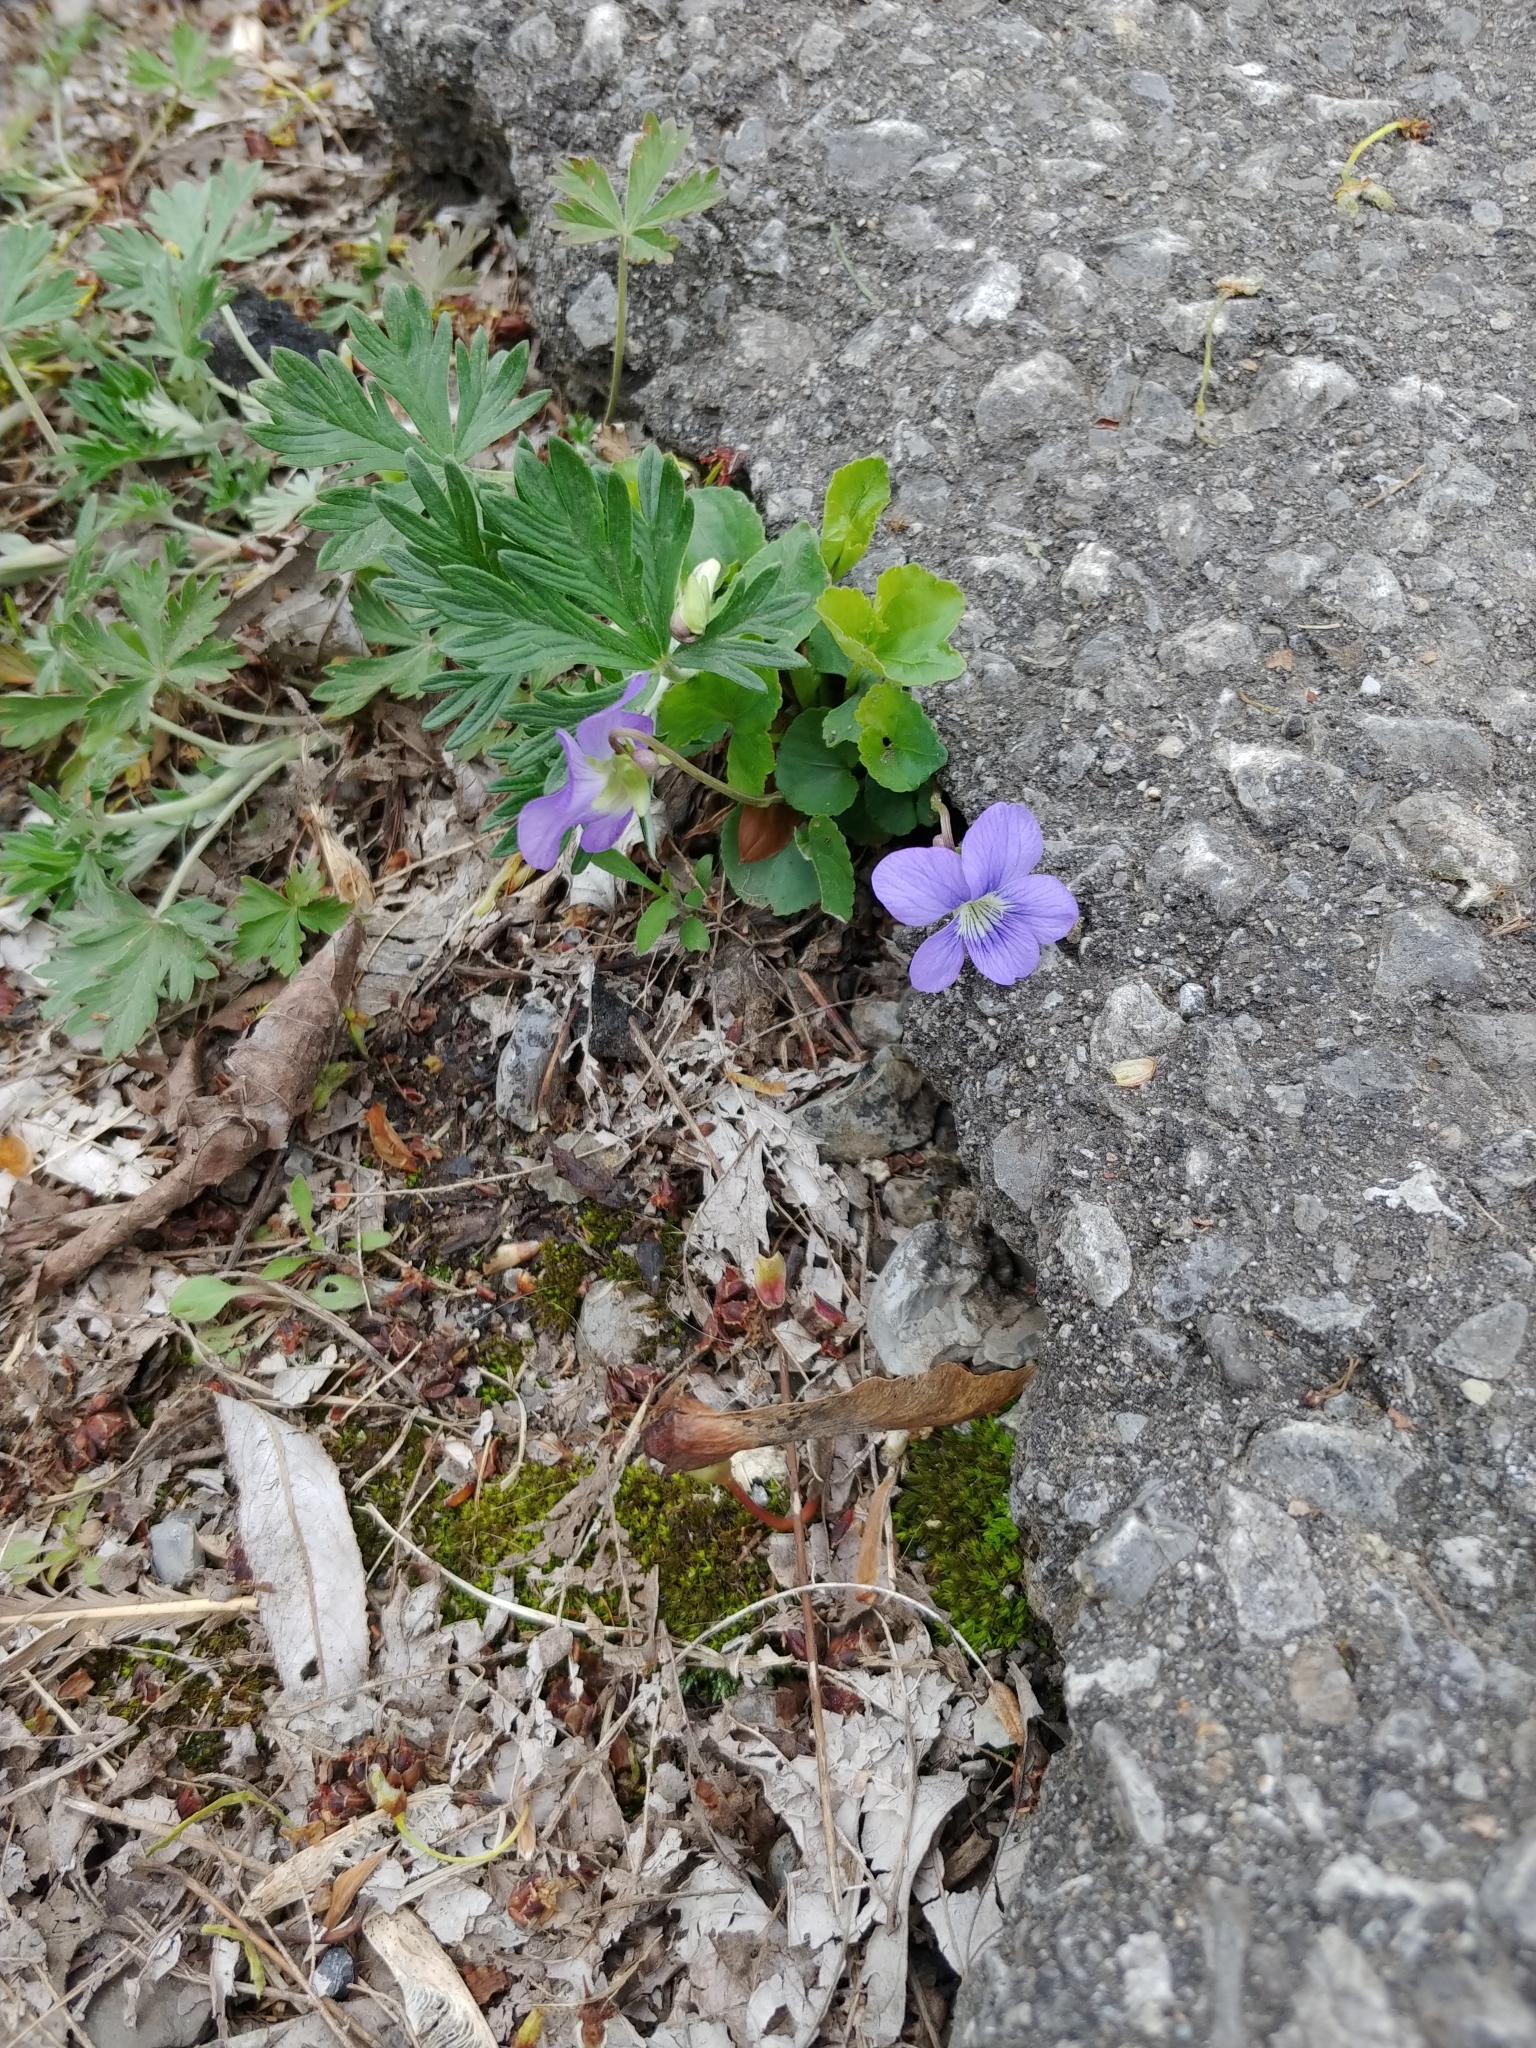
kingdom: Plantae
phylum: Tracheophyta
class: Magnoliopsida
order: Malpighiales
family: Violaceae
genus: Viola
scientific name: Viola sororia
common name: Dooryard violet
